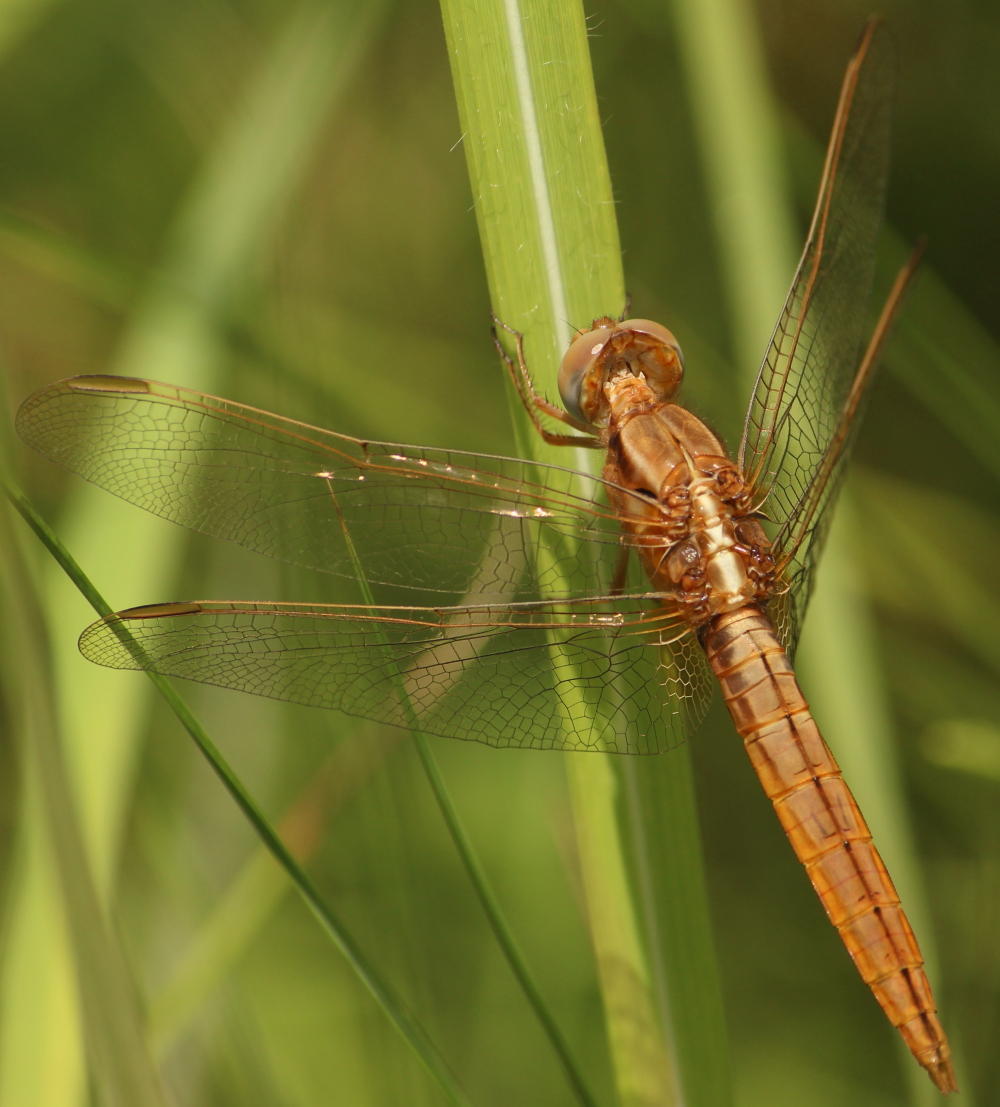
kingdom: Animalia
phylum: Arthropoda
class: Insecta
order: Odonata
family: Libellulidae
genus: Crocothemis
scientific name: Crocothemis erythraea
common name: Scarlet dragonfly
